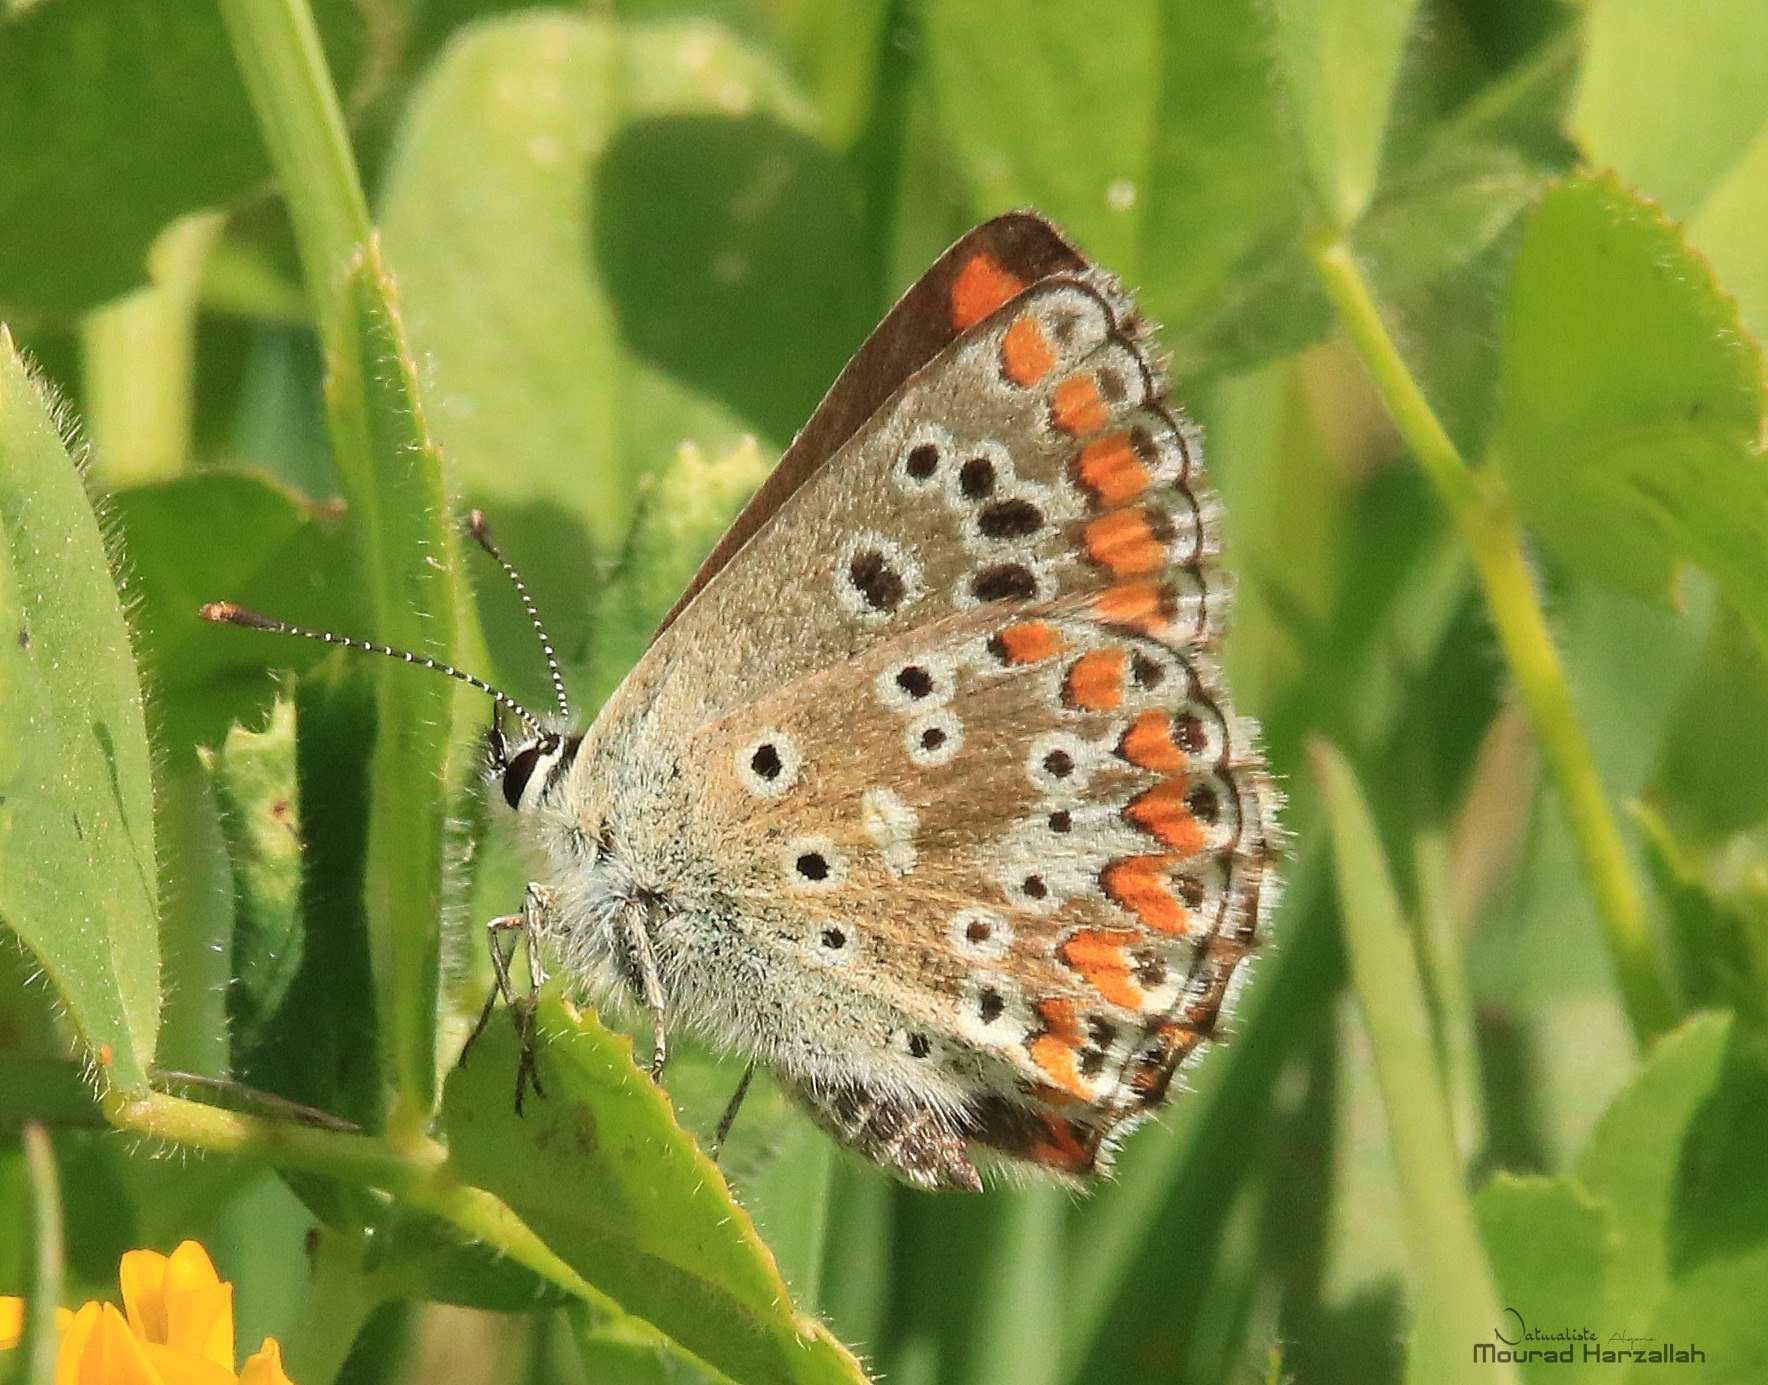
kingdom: Animalia
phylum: Arthropoda
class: Insecta
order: Lepidoptera
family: Lycaenidae
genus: Aricia
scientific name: Aricia cramera
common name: Eschscholtz´s brown  argus
